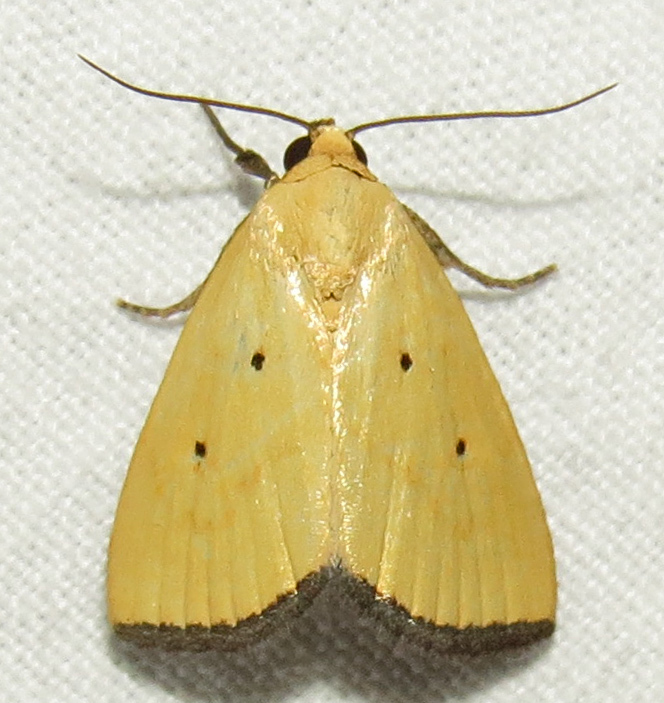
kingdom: Animalia
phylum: Arthropoda
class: Insecta
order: Lepidoptera
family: Noctuidae
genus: Marimatha
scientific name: Marimatha nigrofimbria
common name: Black-bordered lemon moth
